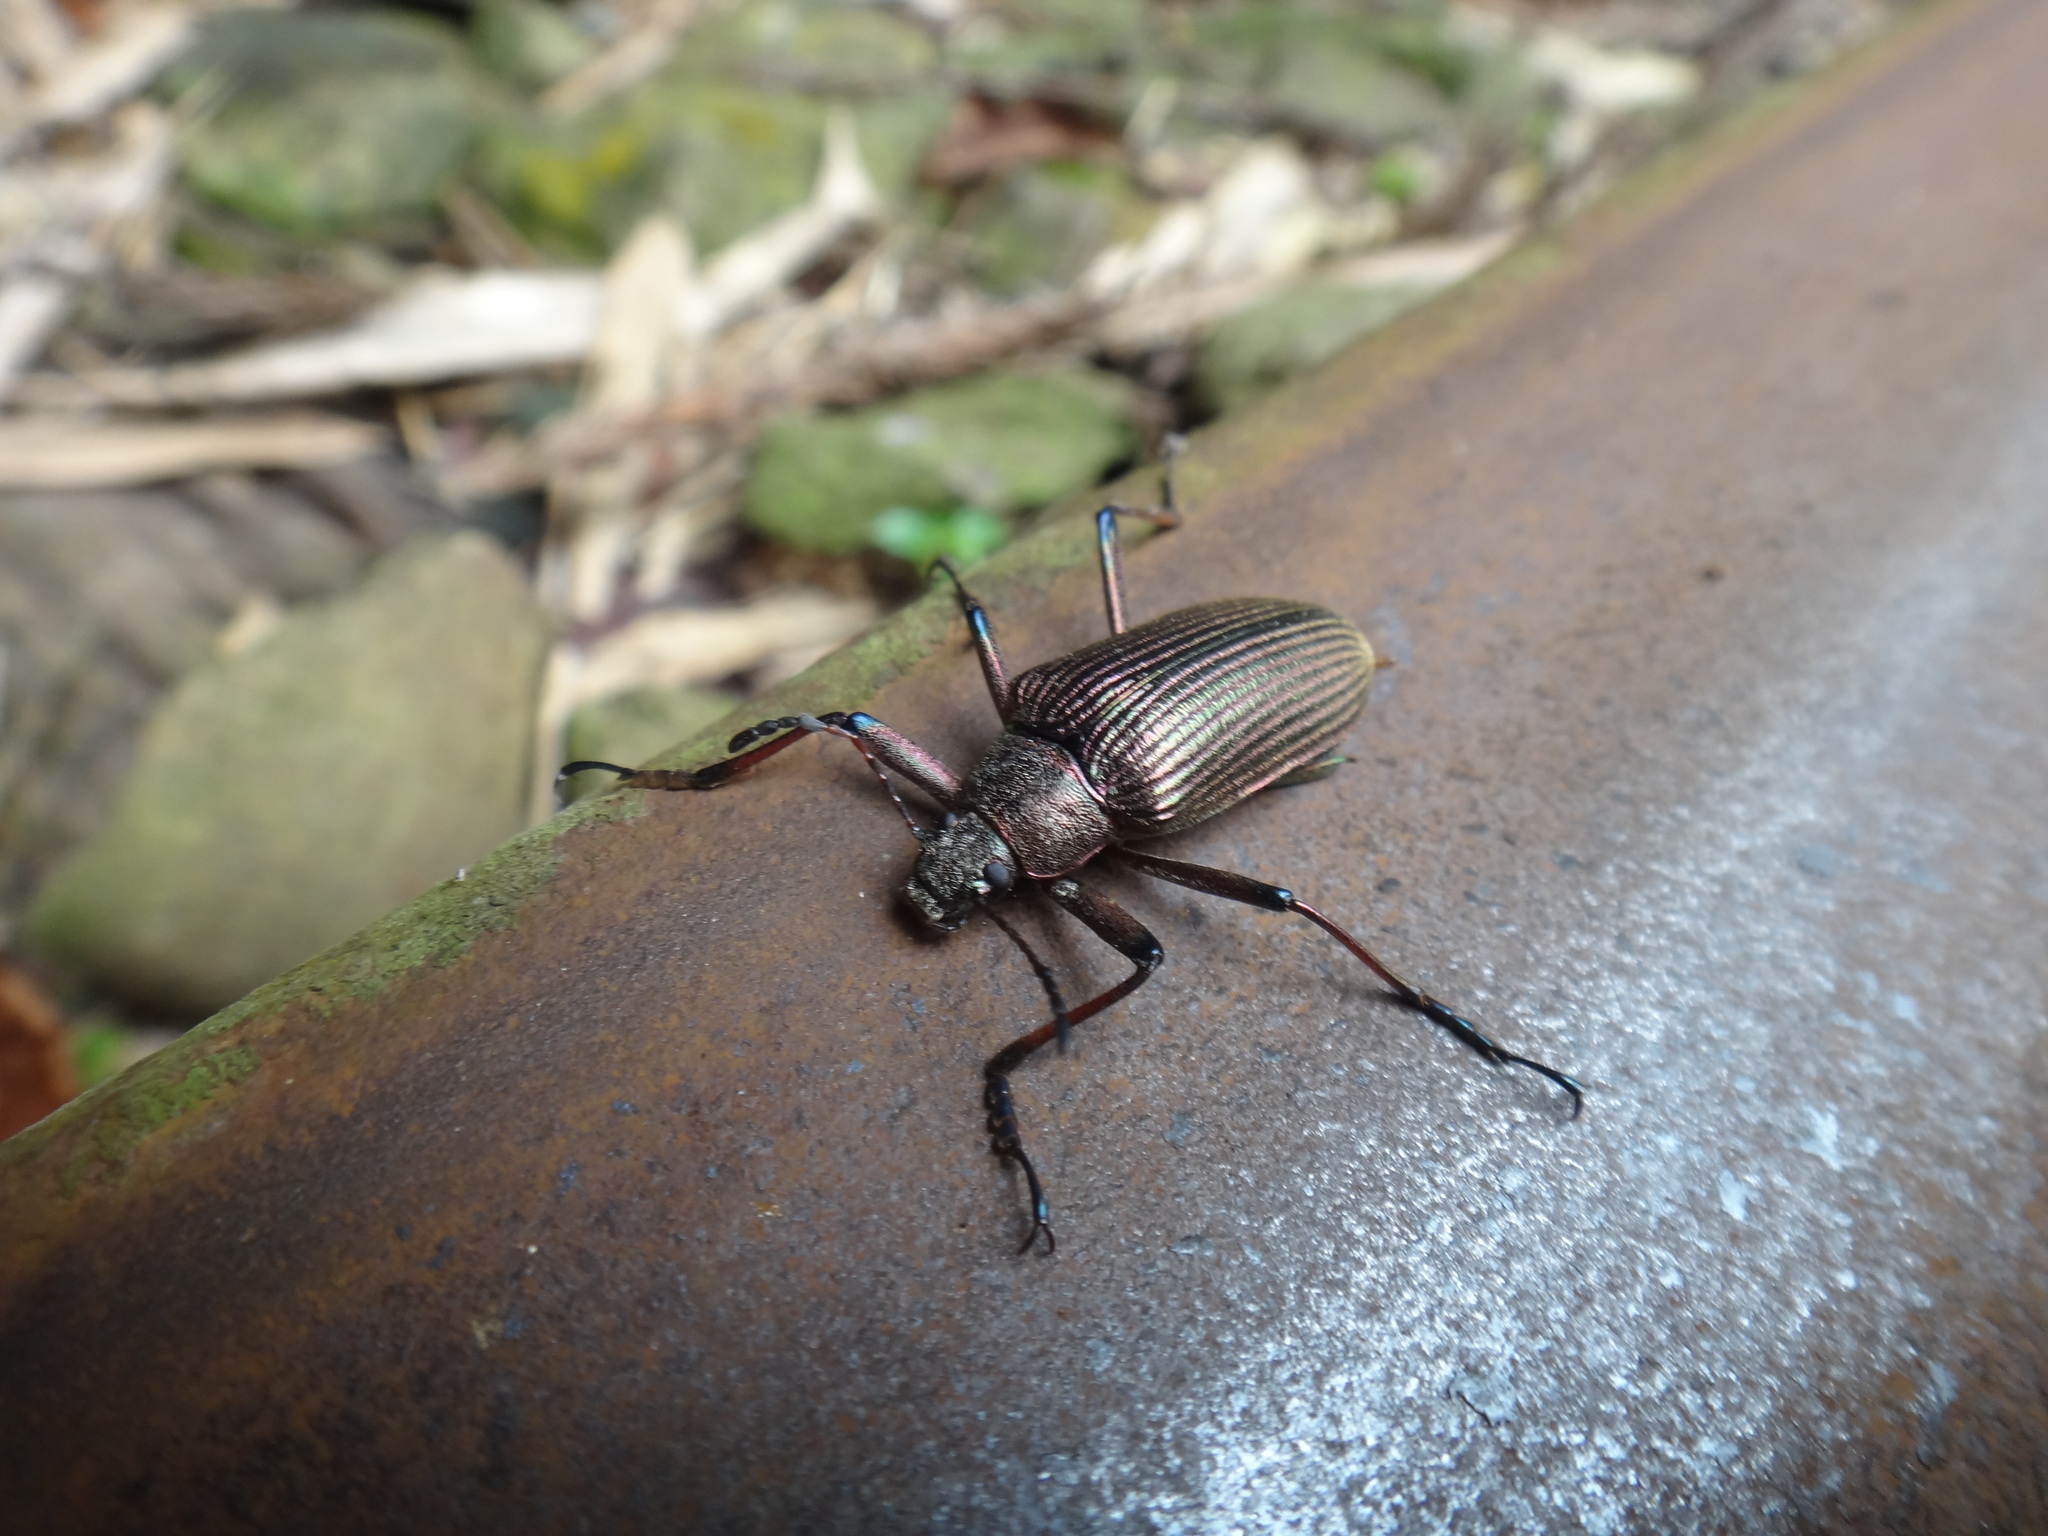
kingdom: Animalia
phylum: Arthropoda
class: Insecta
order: Coleoptera
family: Tenebrionidae
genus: Andocamaria
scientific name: Andocamaria formosana
